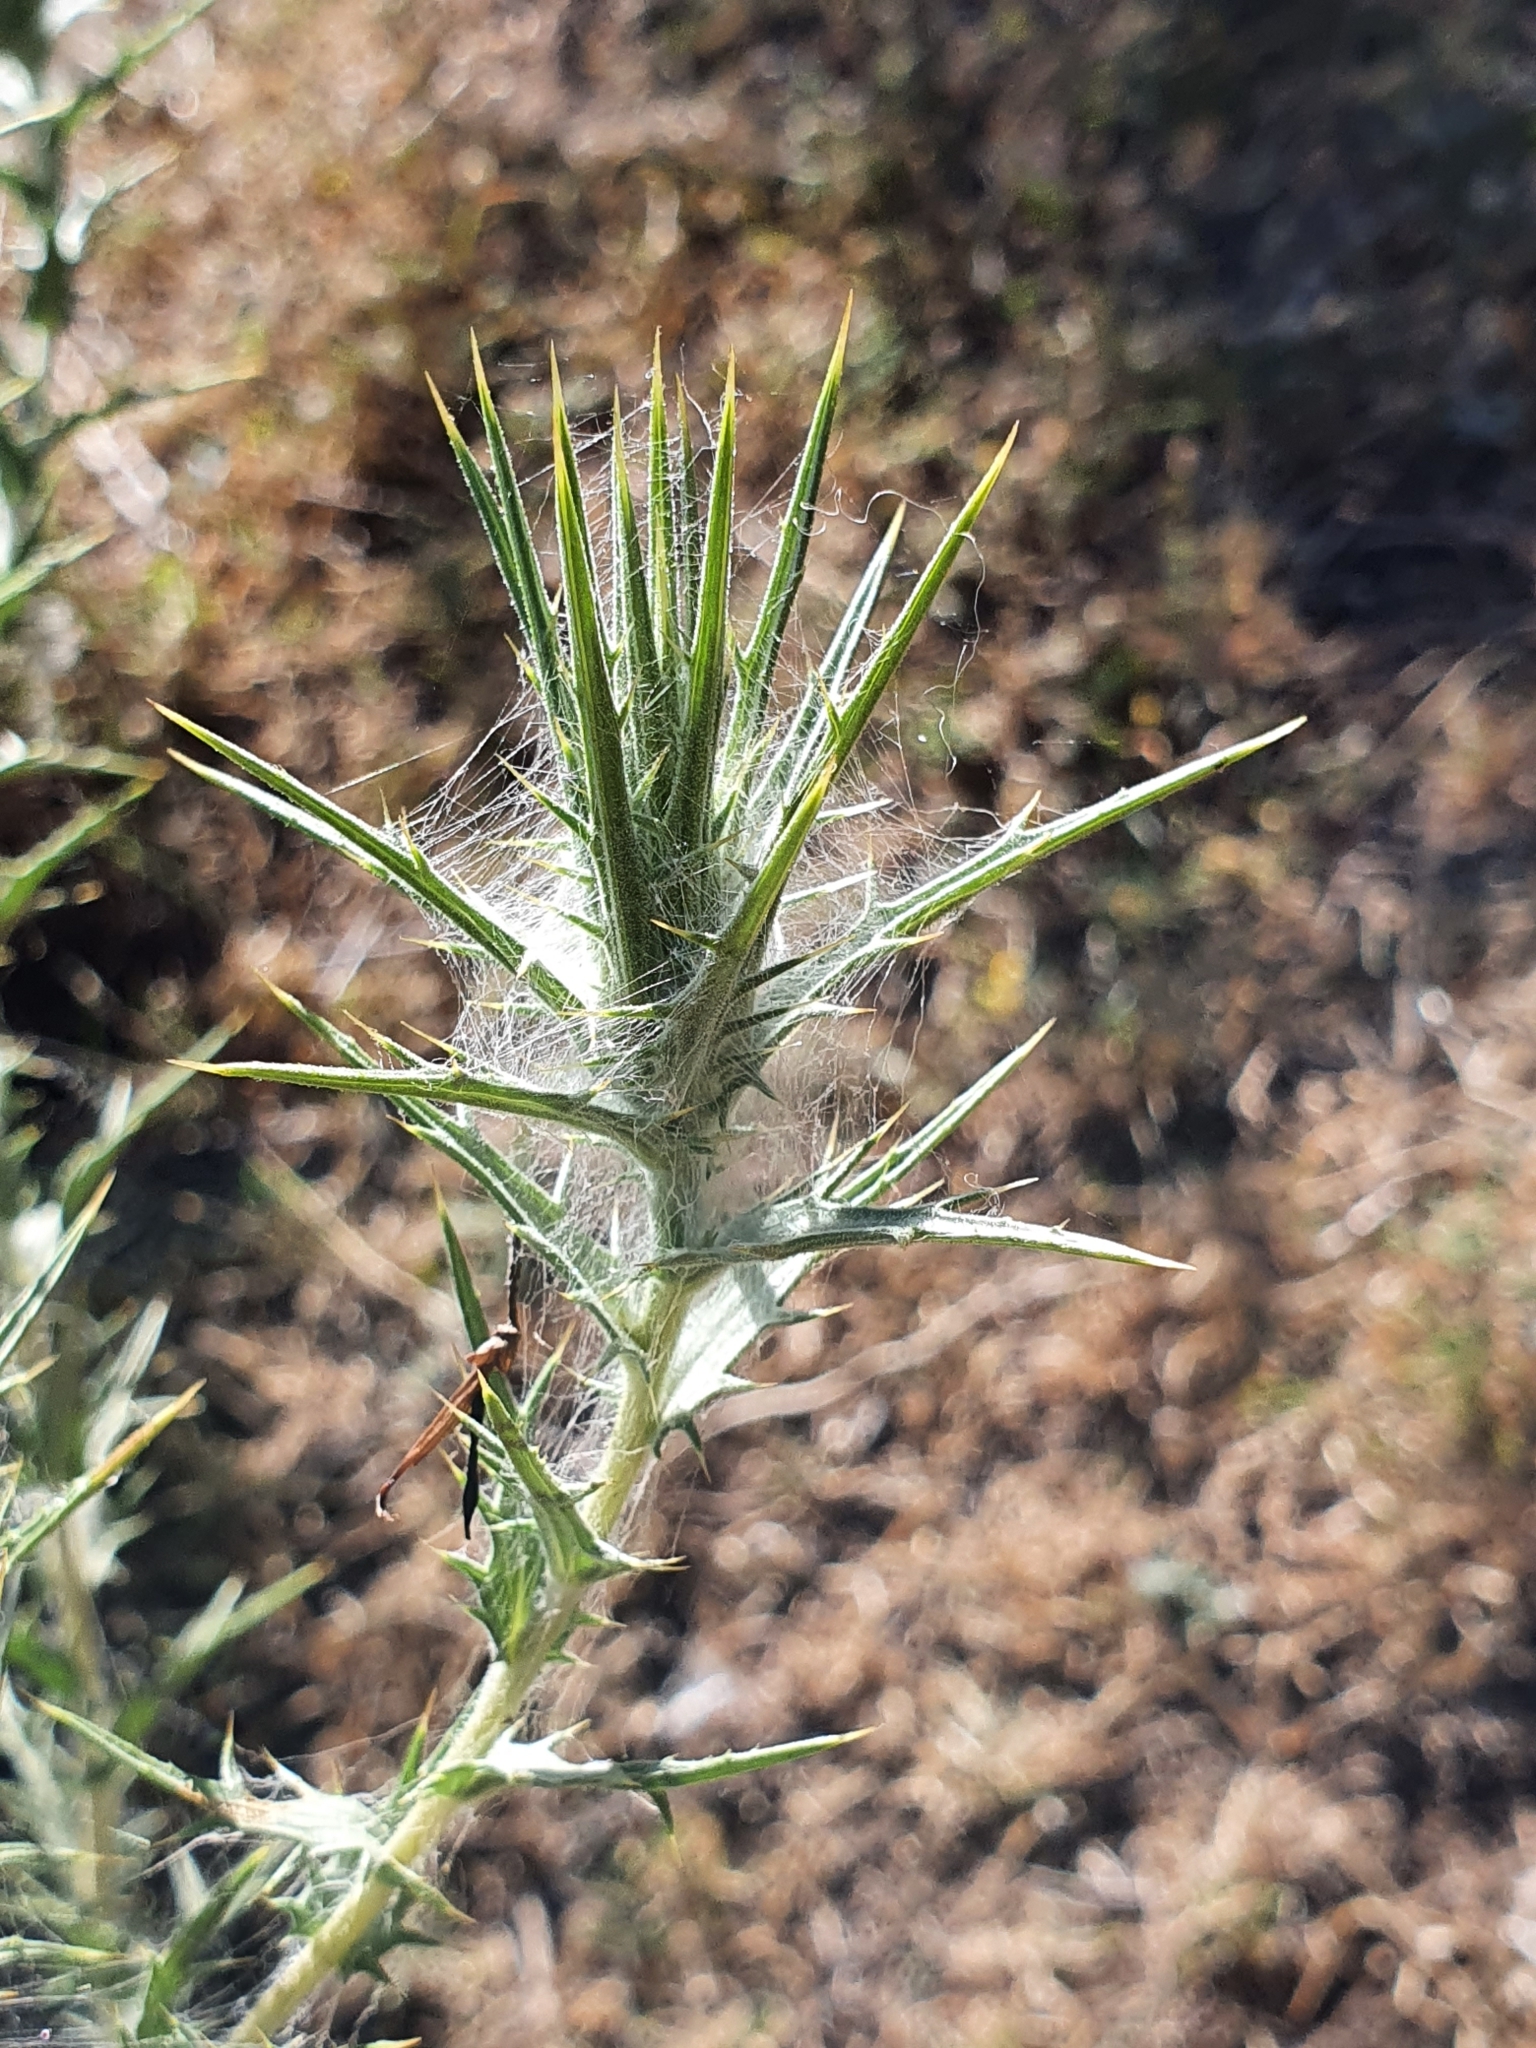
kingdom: Plantae
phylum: Tracheophyta
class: Magnoliopsida
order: Asterales
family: Asteraceae
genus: Carthamus
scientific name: Carthamus lanatus
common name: Downy safflower
